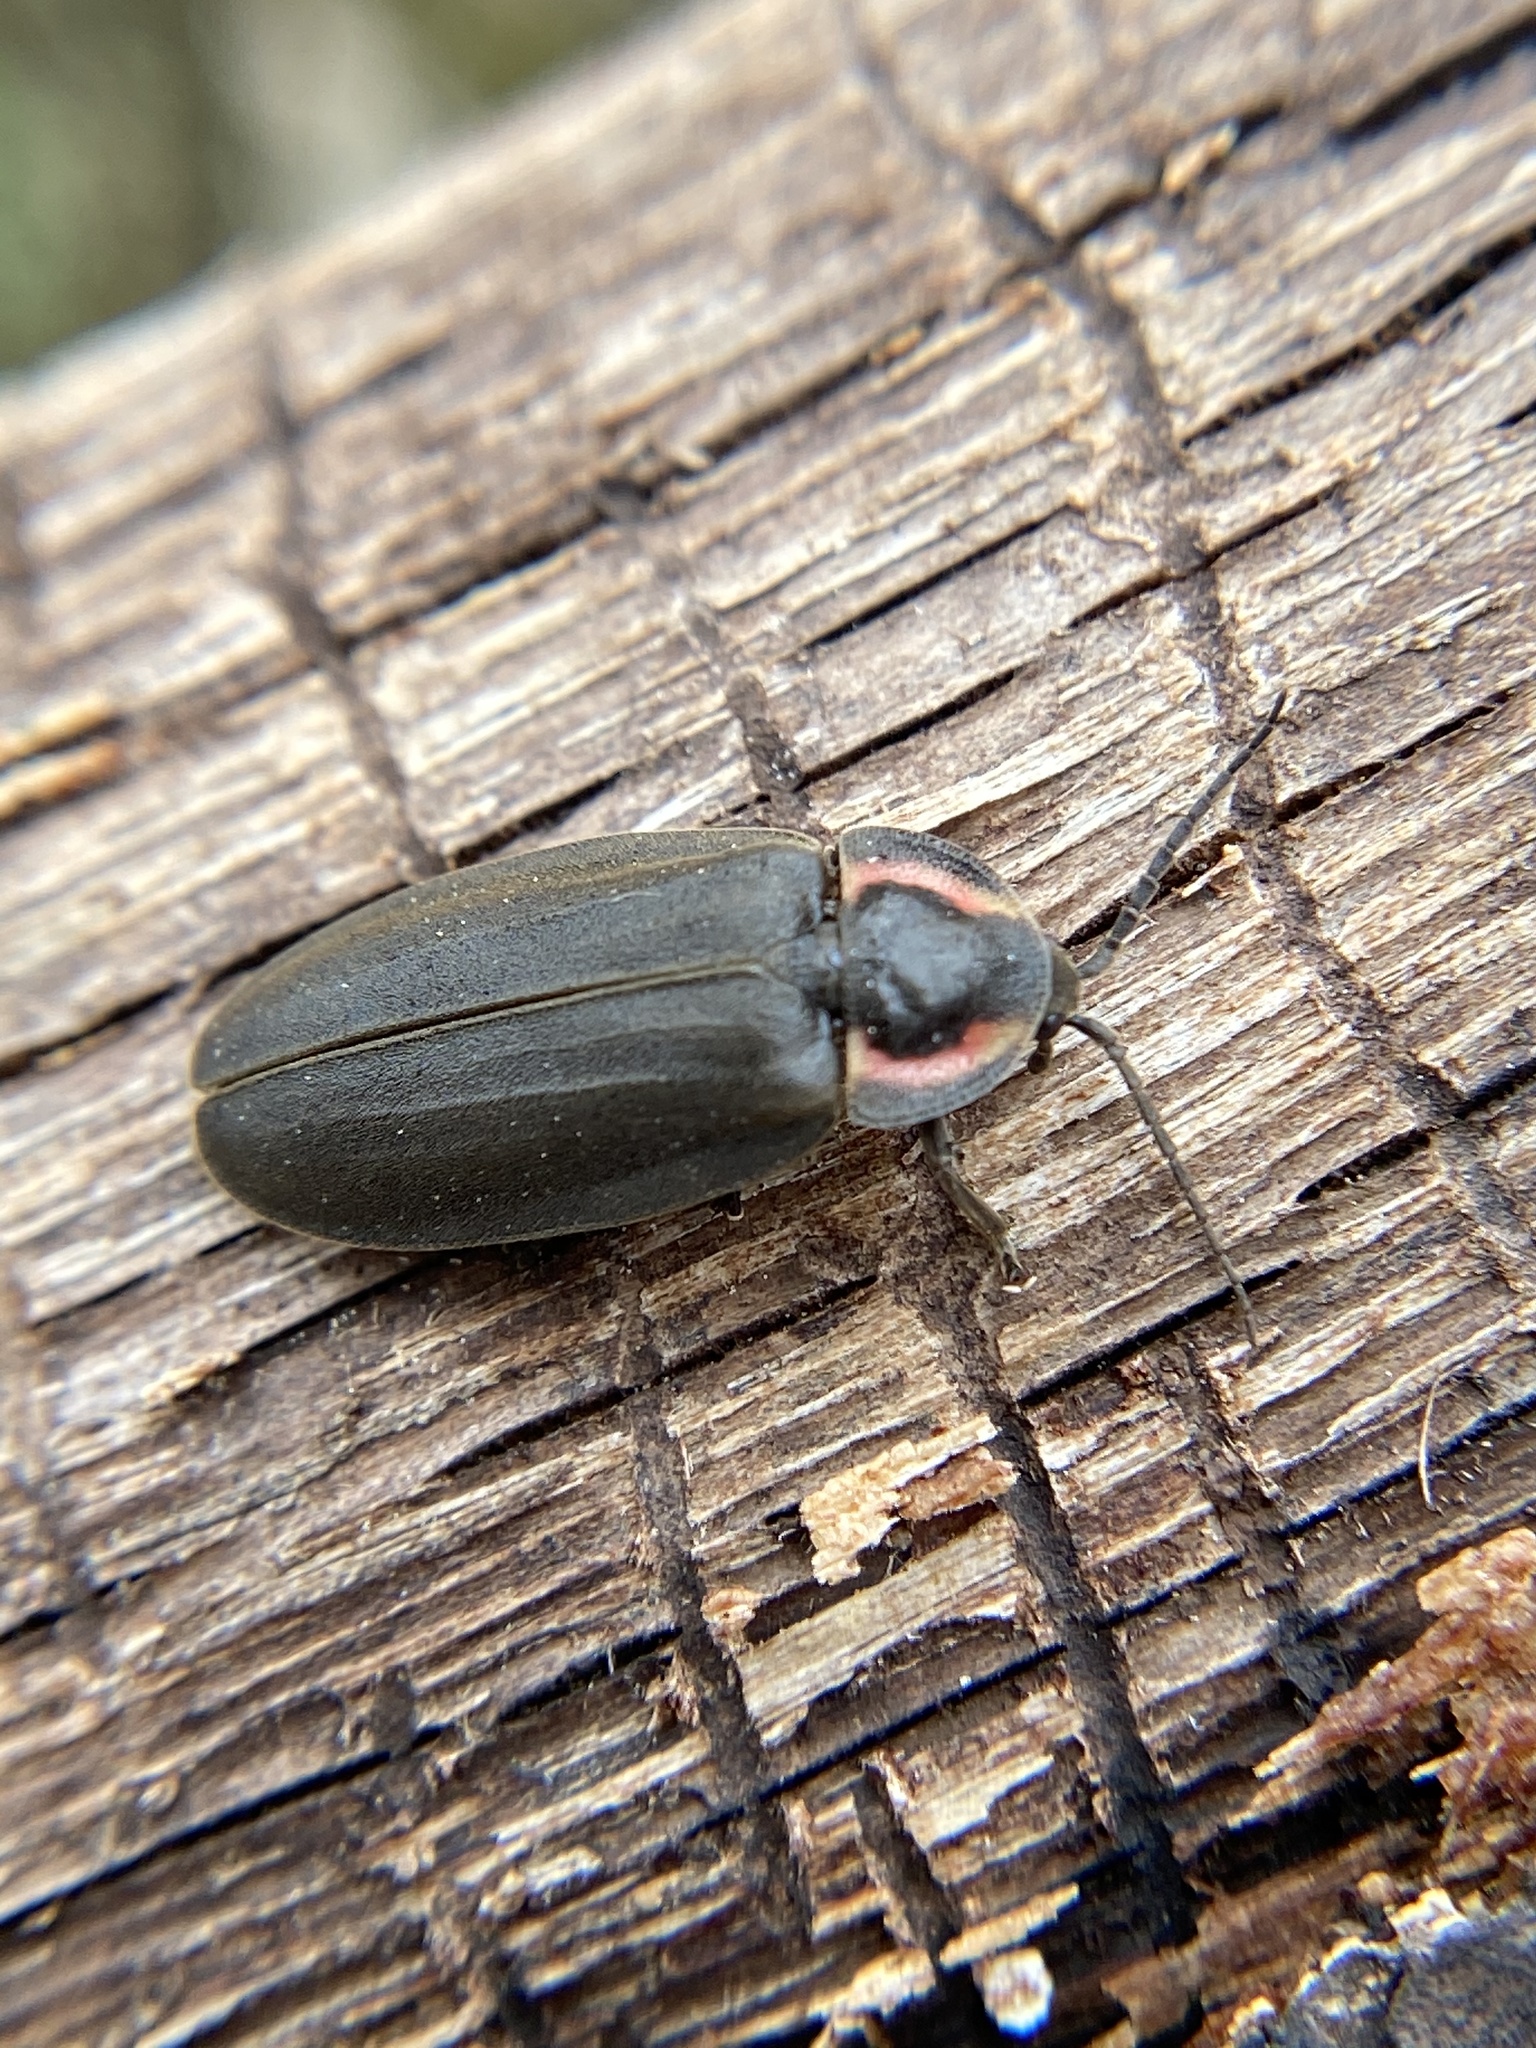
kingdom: Animalia
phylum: Arthropoda
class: Insecta
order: Coleoptera
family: Lampyridae
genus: Photinus
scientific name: Photinus corrusca
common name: Winter firefly
